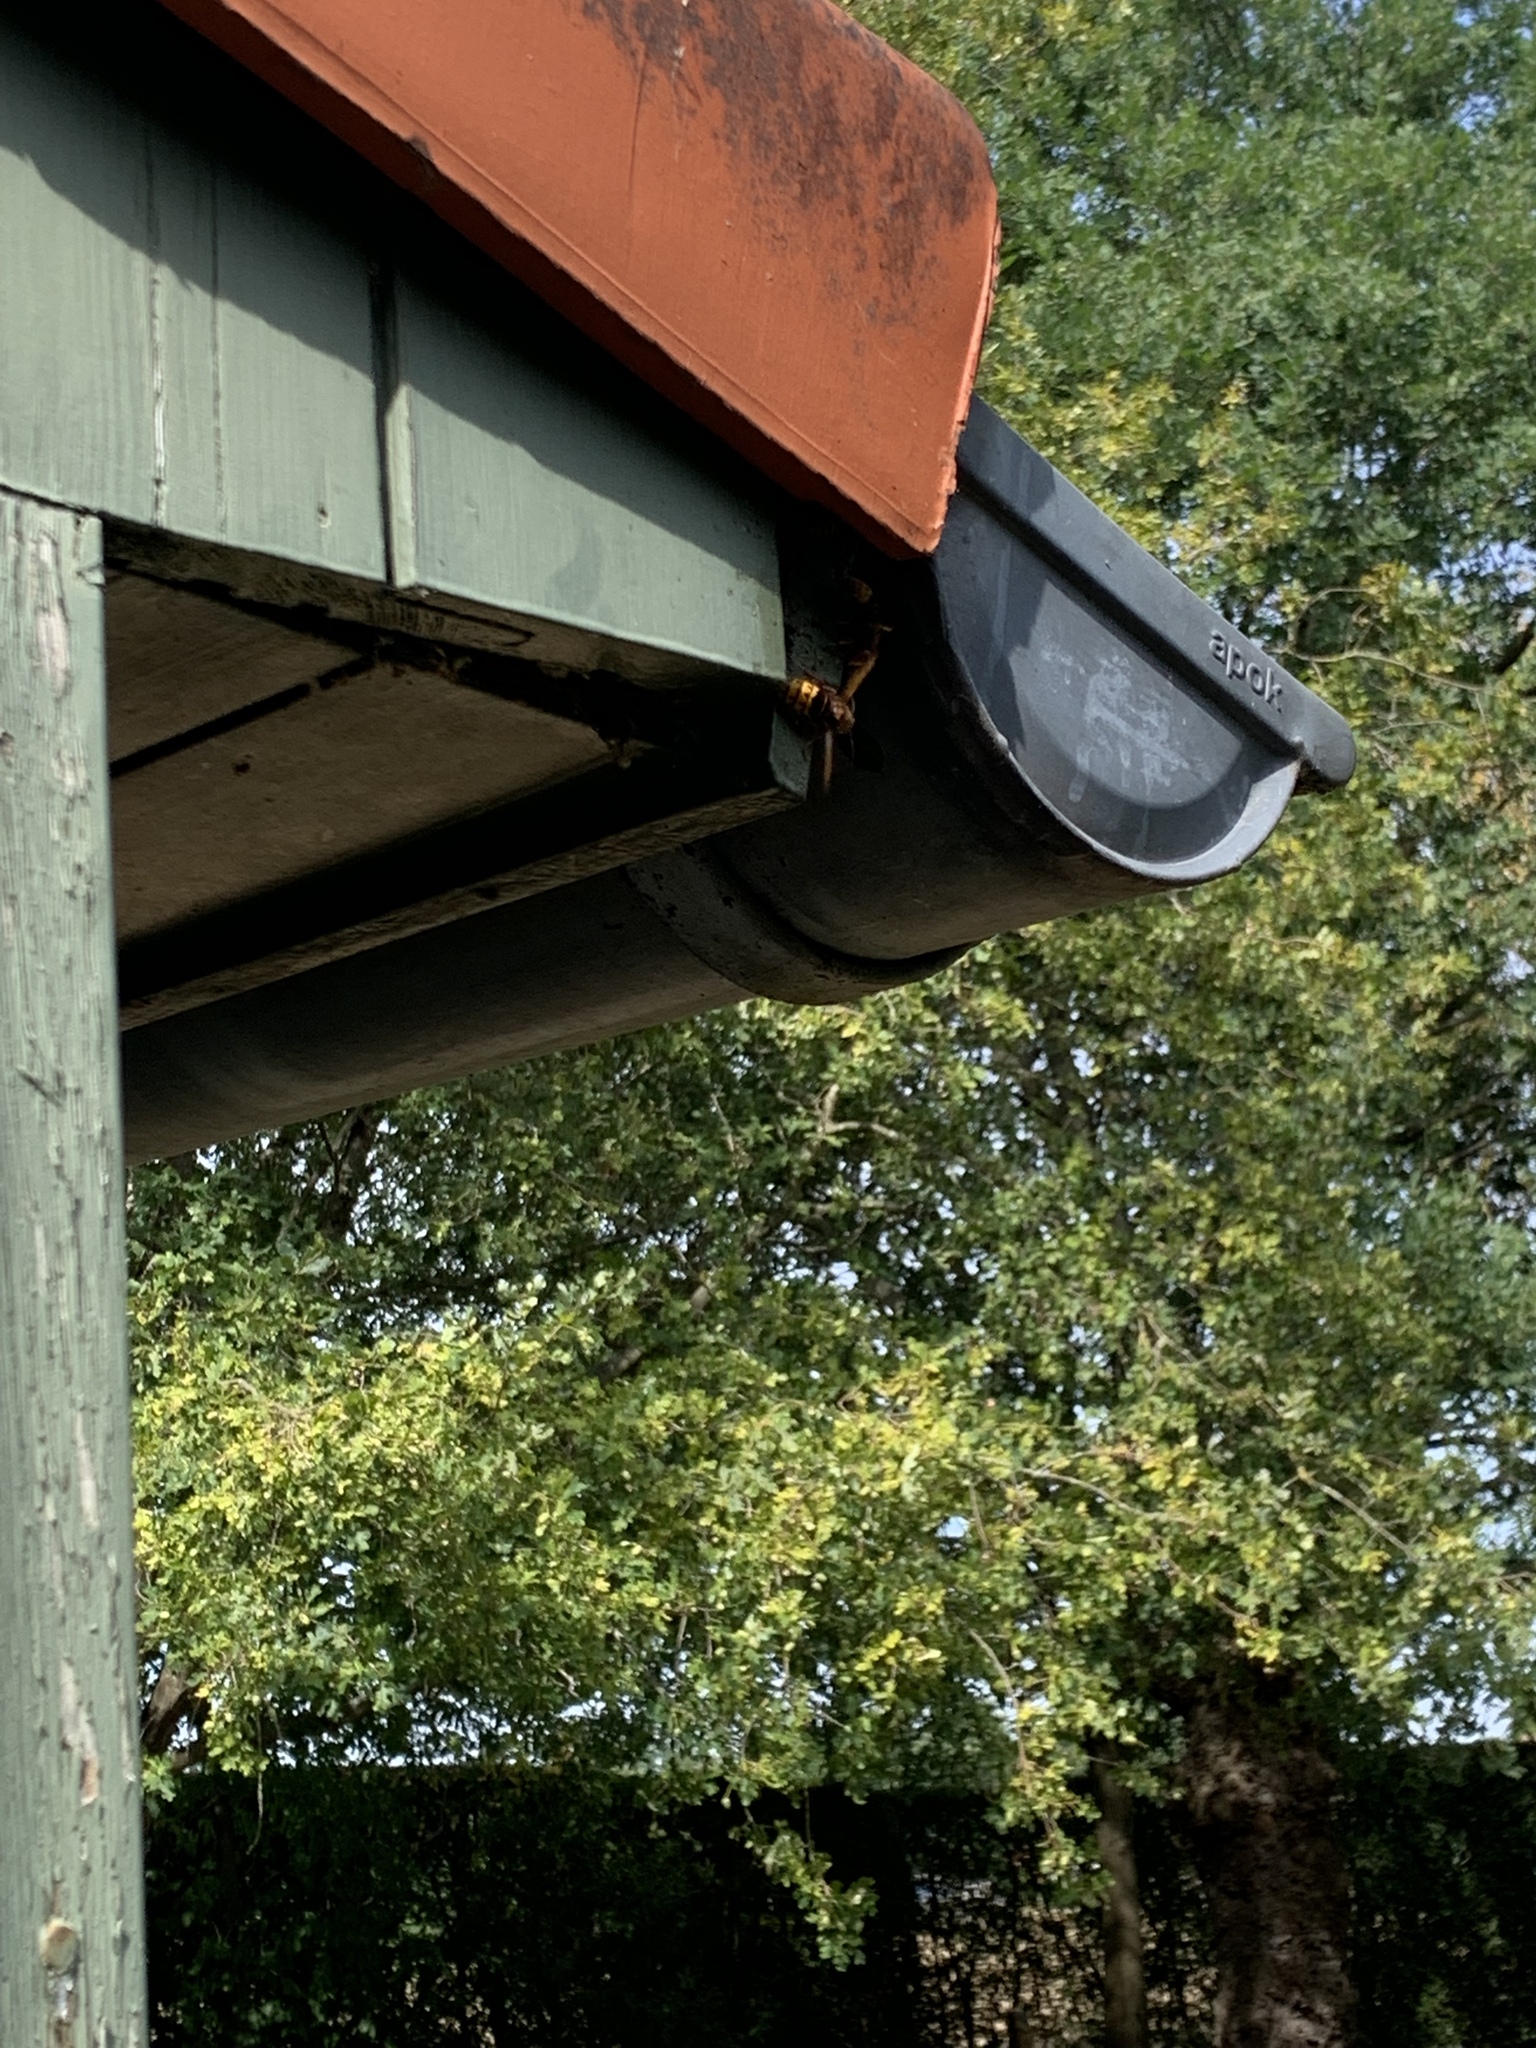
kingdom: Animalia
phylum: Arthropoda
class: Insecta
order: Hymenoptera
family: Vespidae
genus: Vespa
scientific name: Vespa crabro
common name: Hornet
